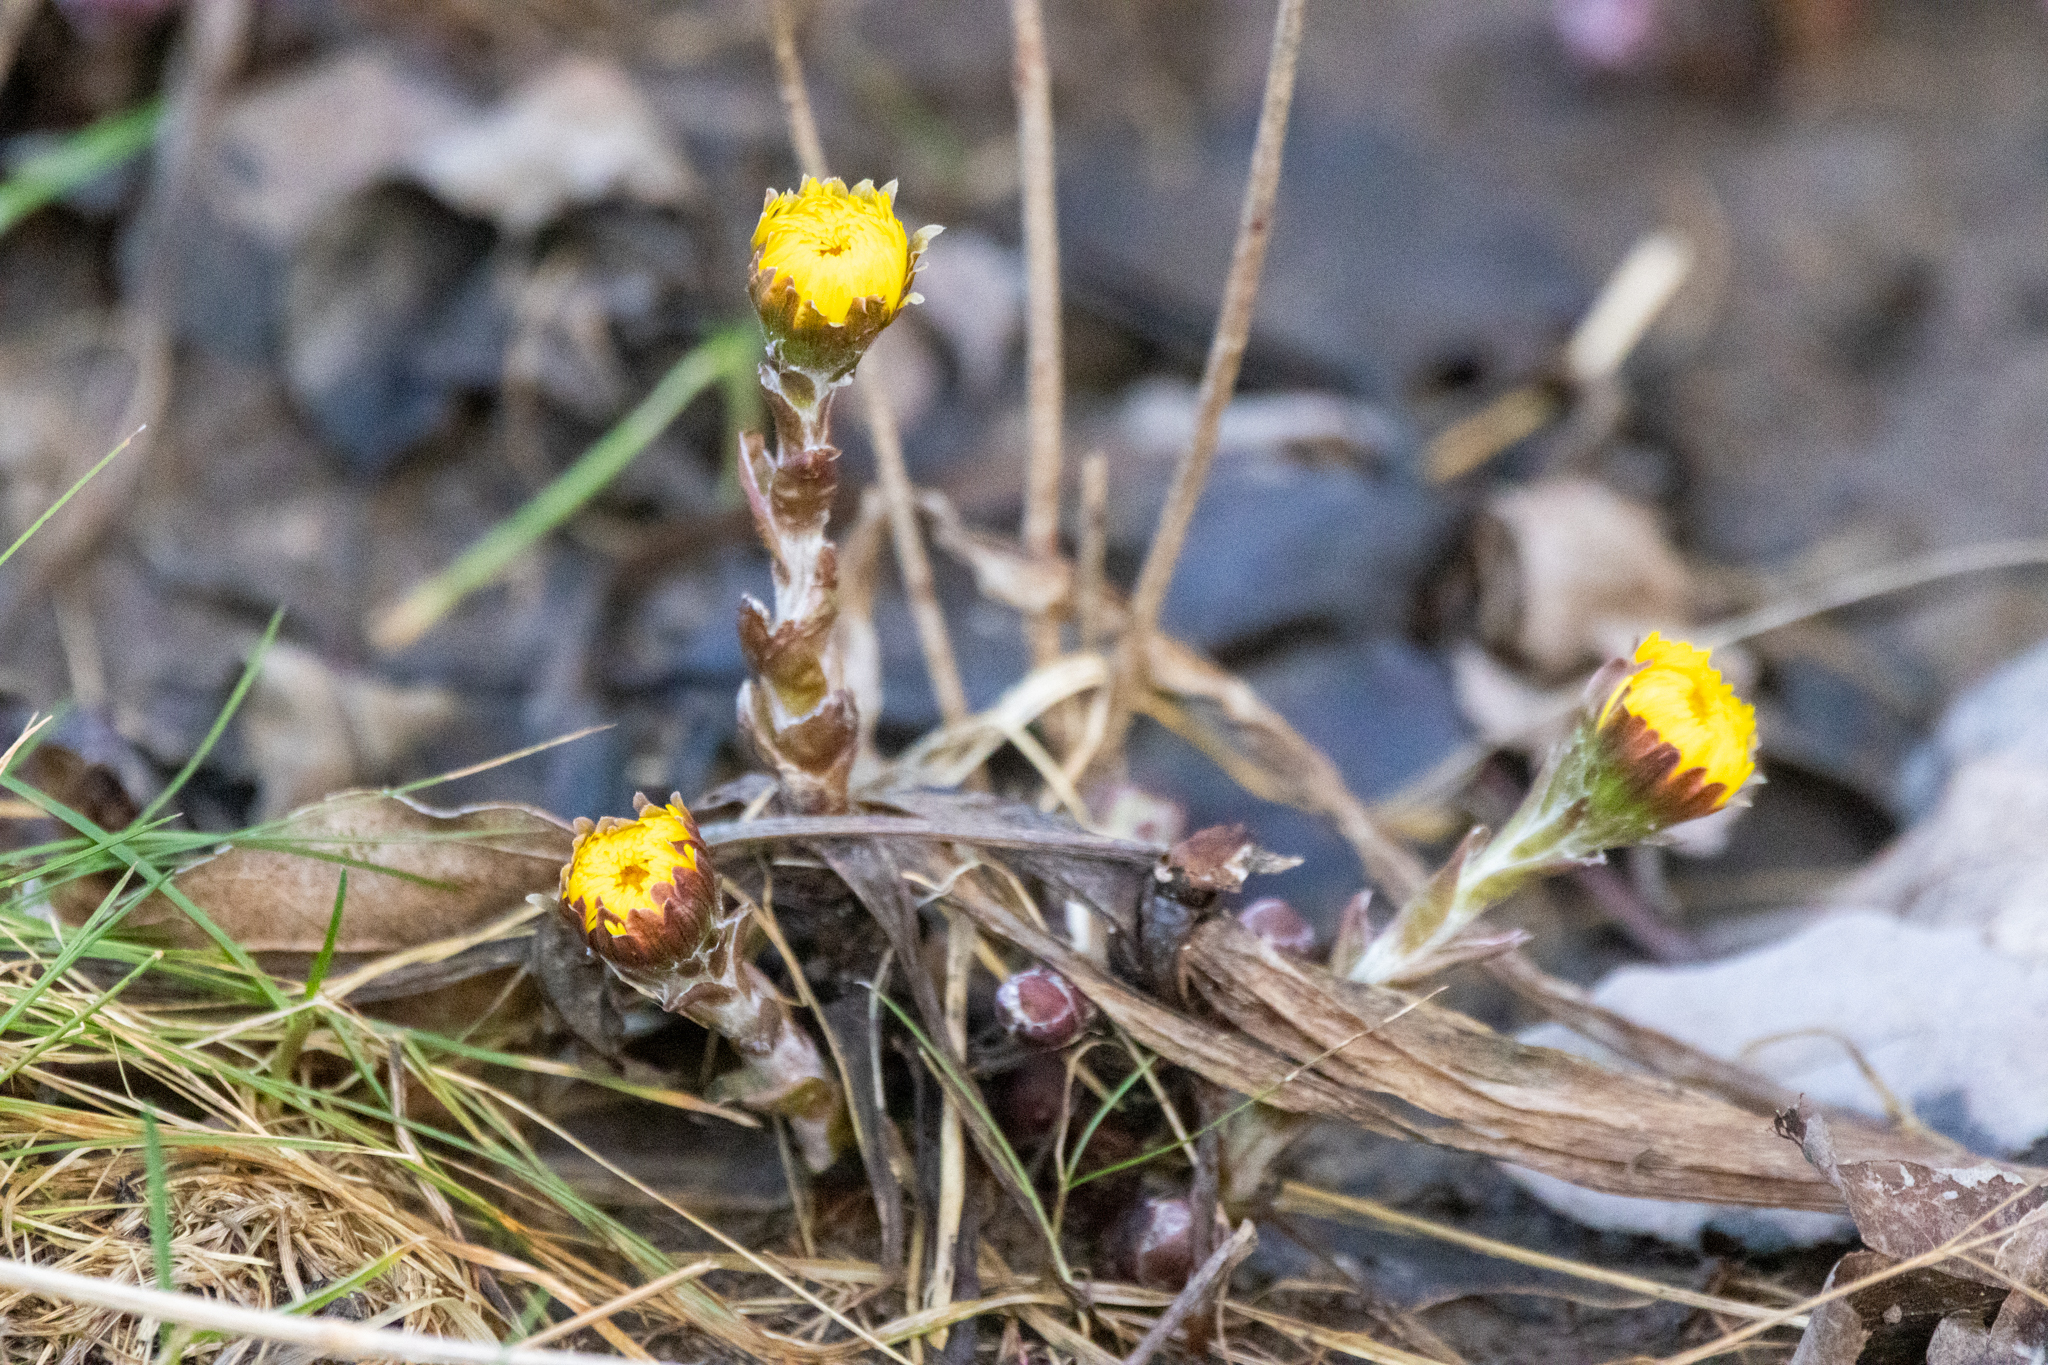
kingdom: Plantae
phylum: Tracheophyta
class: Magnoliopsida
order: Asterales
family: Asteraceae
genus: Tussilago
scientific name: Tussilago farfara
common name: Coltsfoot
